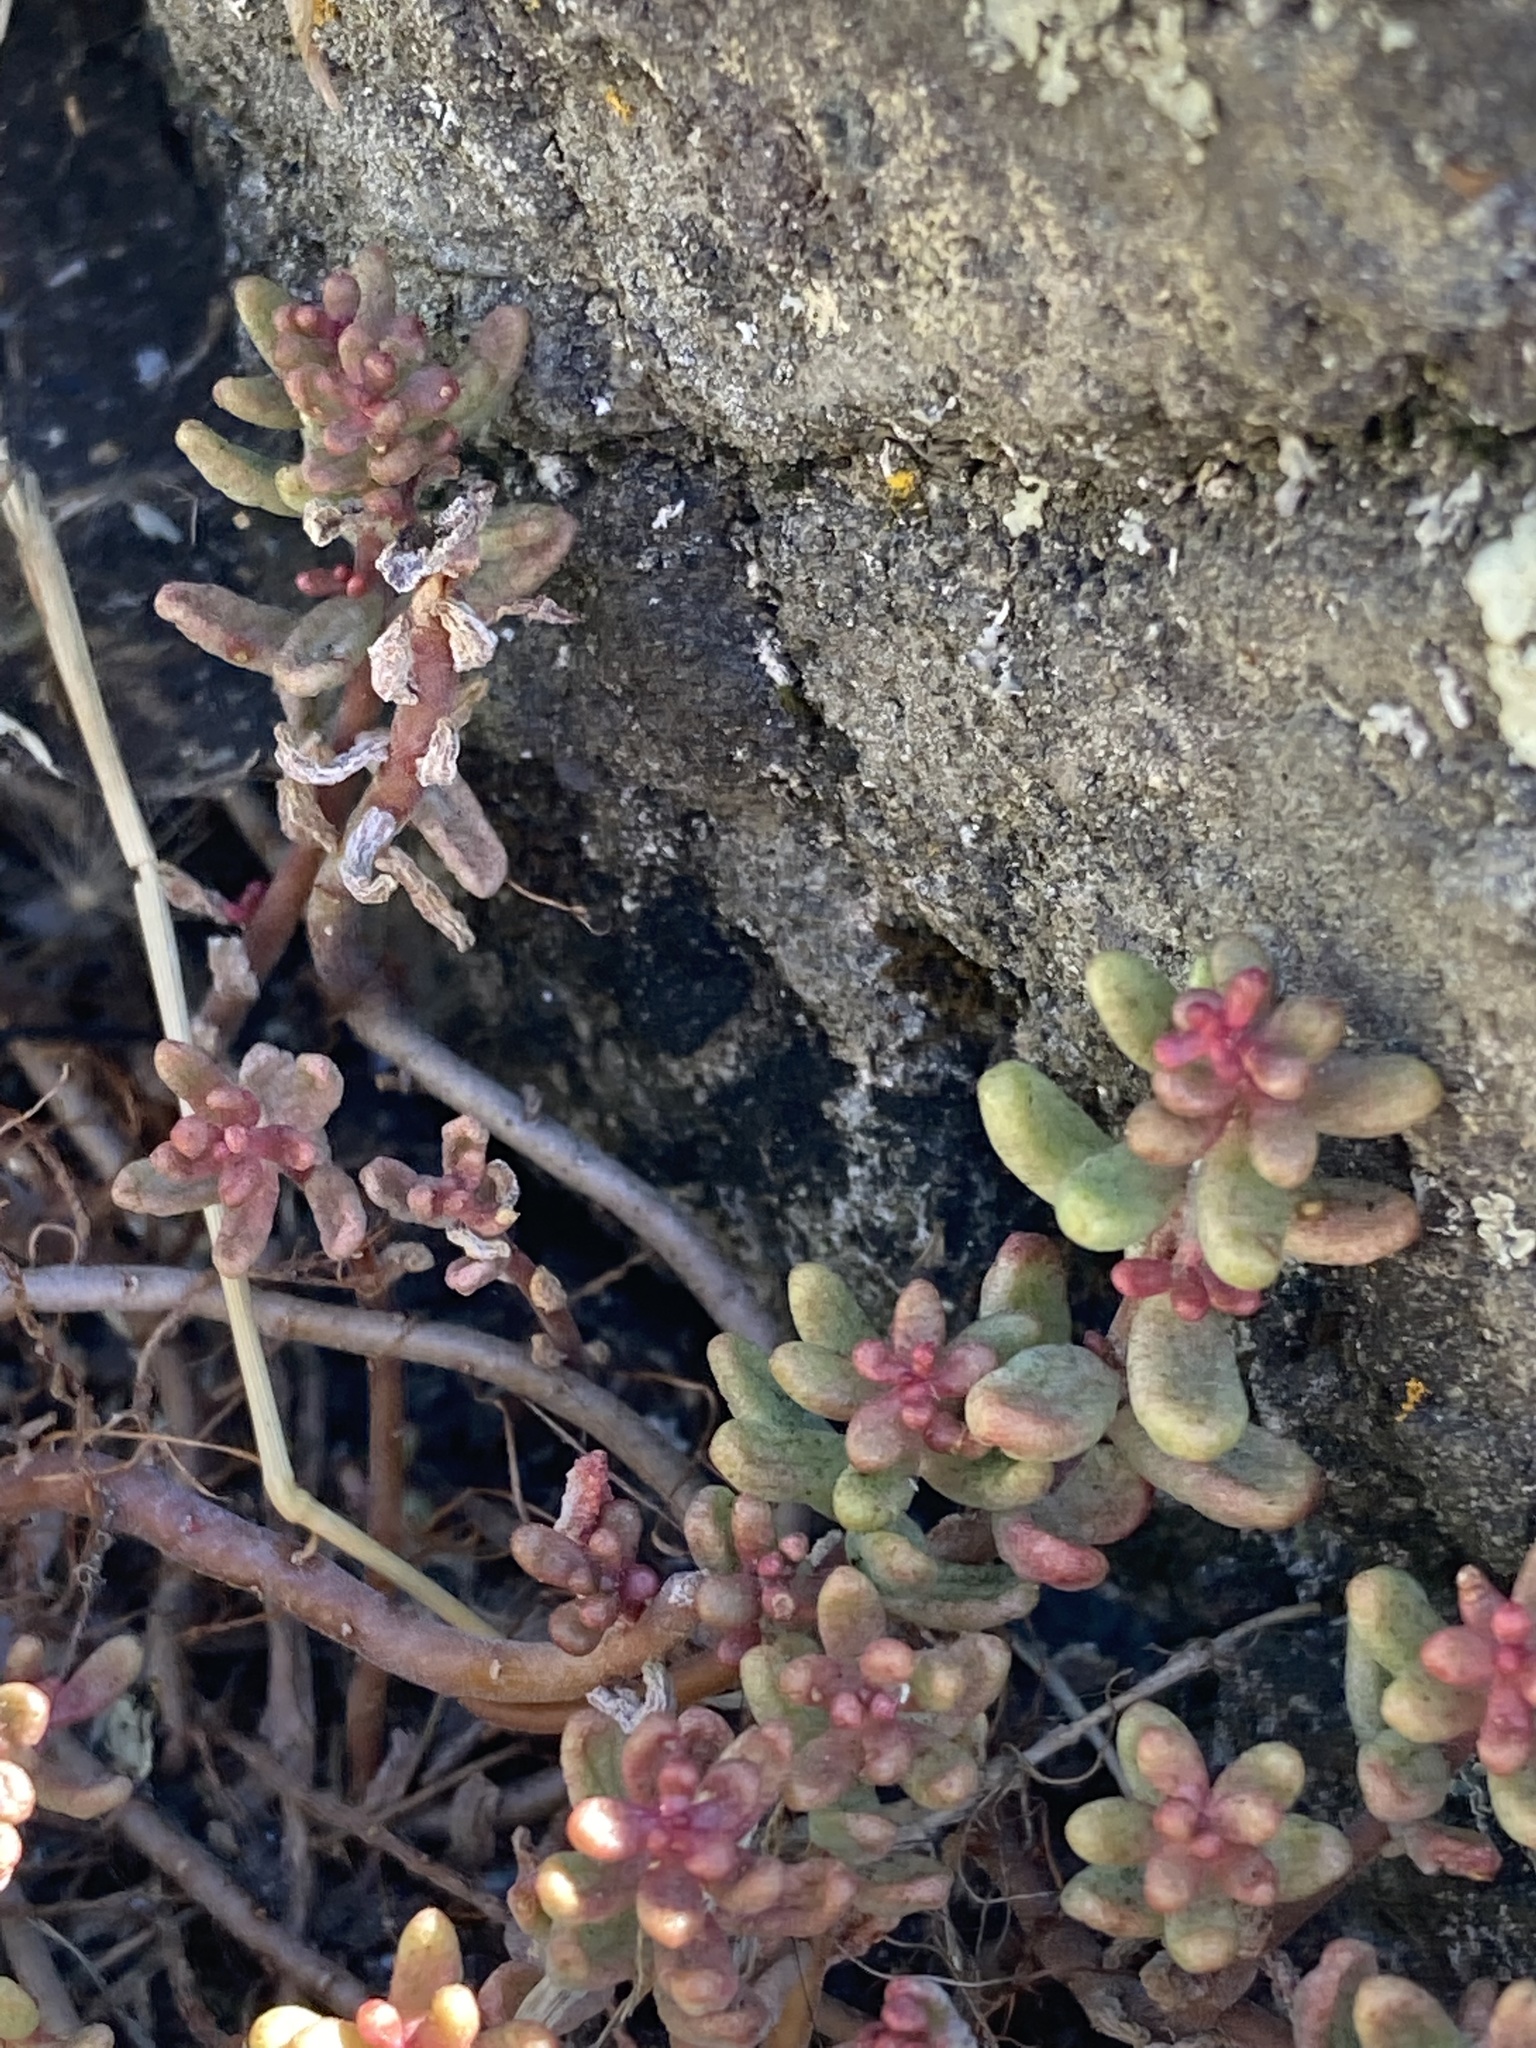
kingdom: Plantae
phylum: Tracheophyta
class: Magnoliopsida
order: Saxifragales
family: Crassulaceae
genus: Sedum
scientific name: Sedum album
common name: White stonecrop
